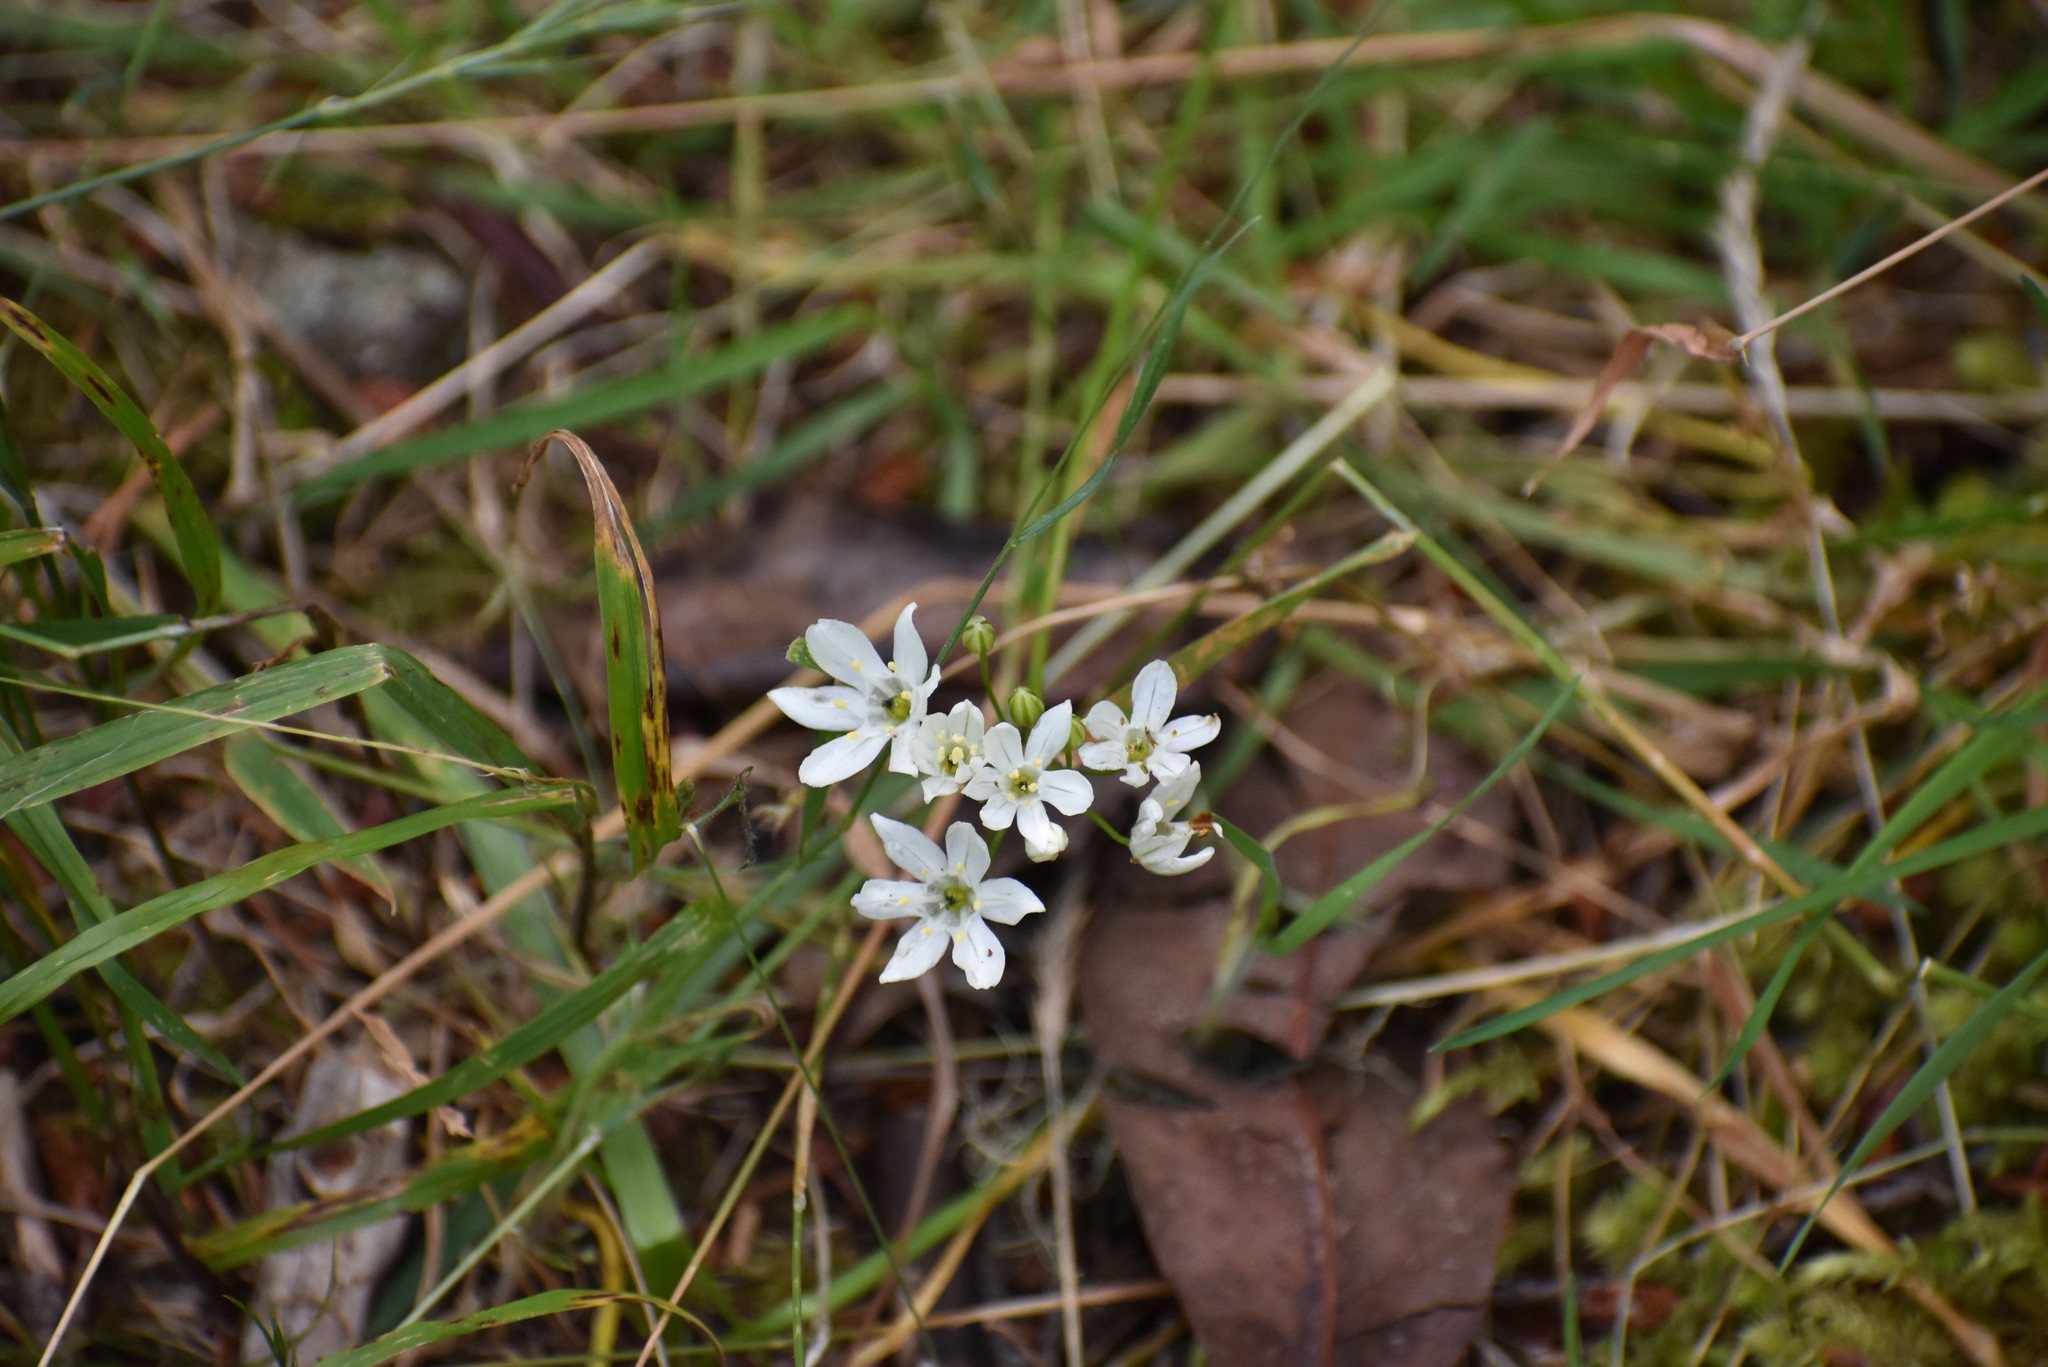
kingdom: Plantae
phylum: Tracheophyta
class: Liliopsida
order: Asparagales
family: Asparagaceae
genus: Triteleia
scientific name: Triteleia hyacinthina
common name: White brodiaea
